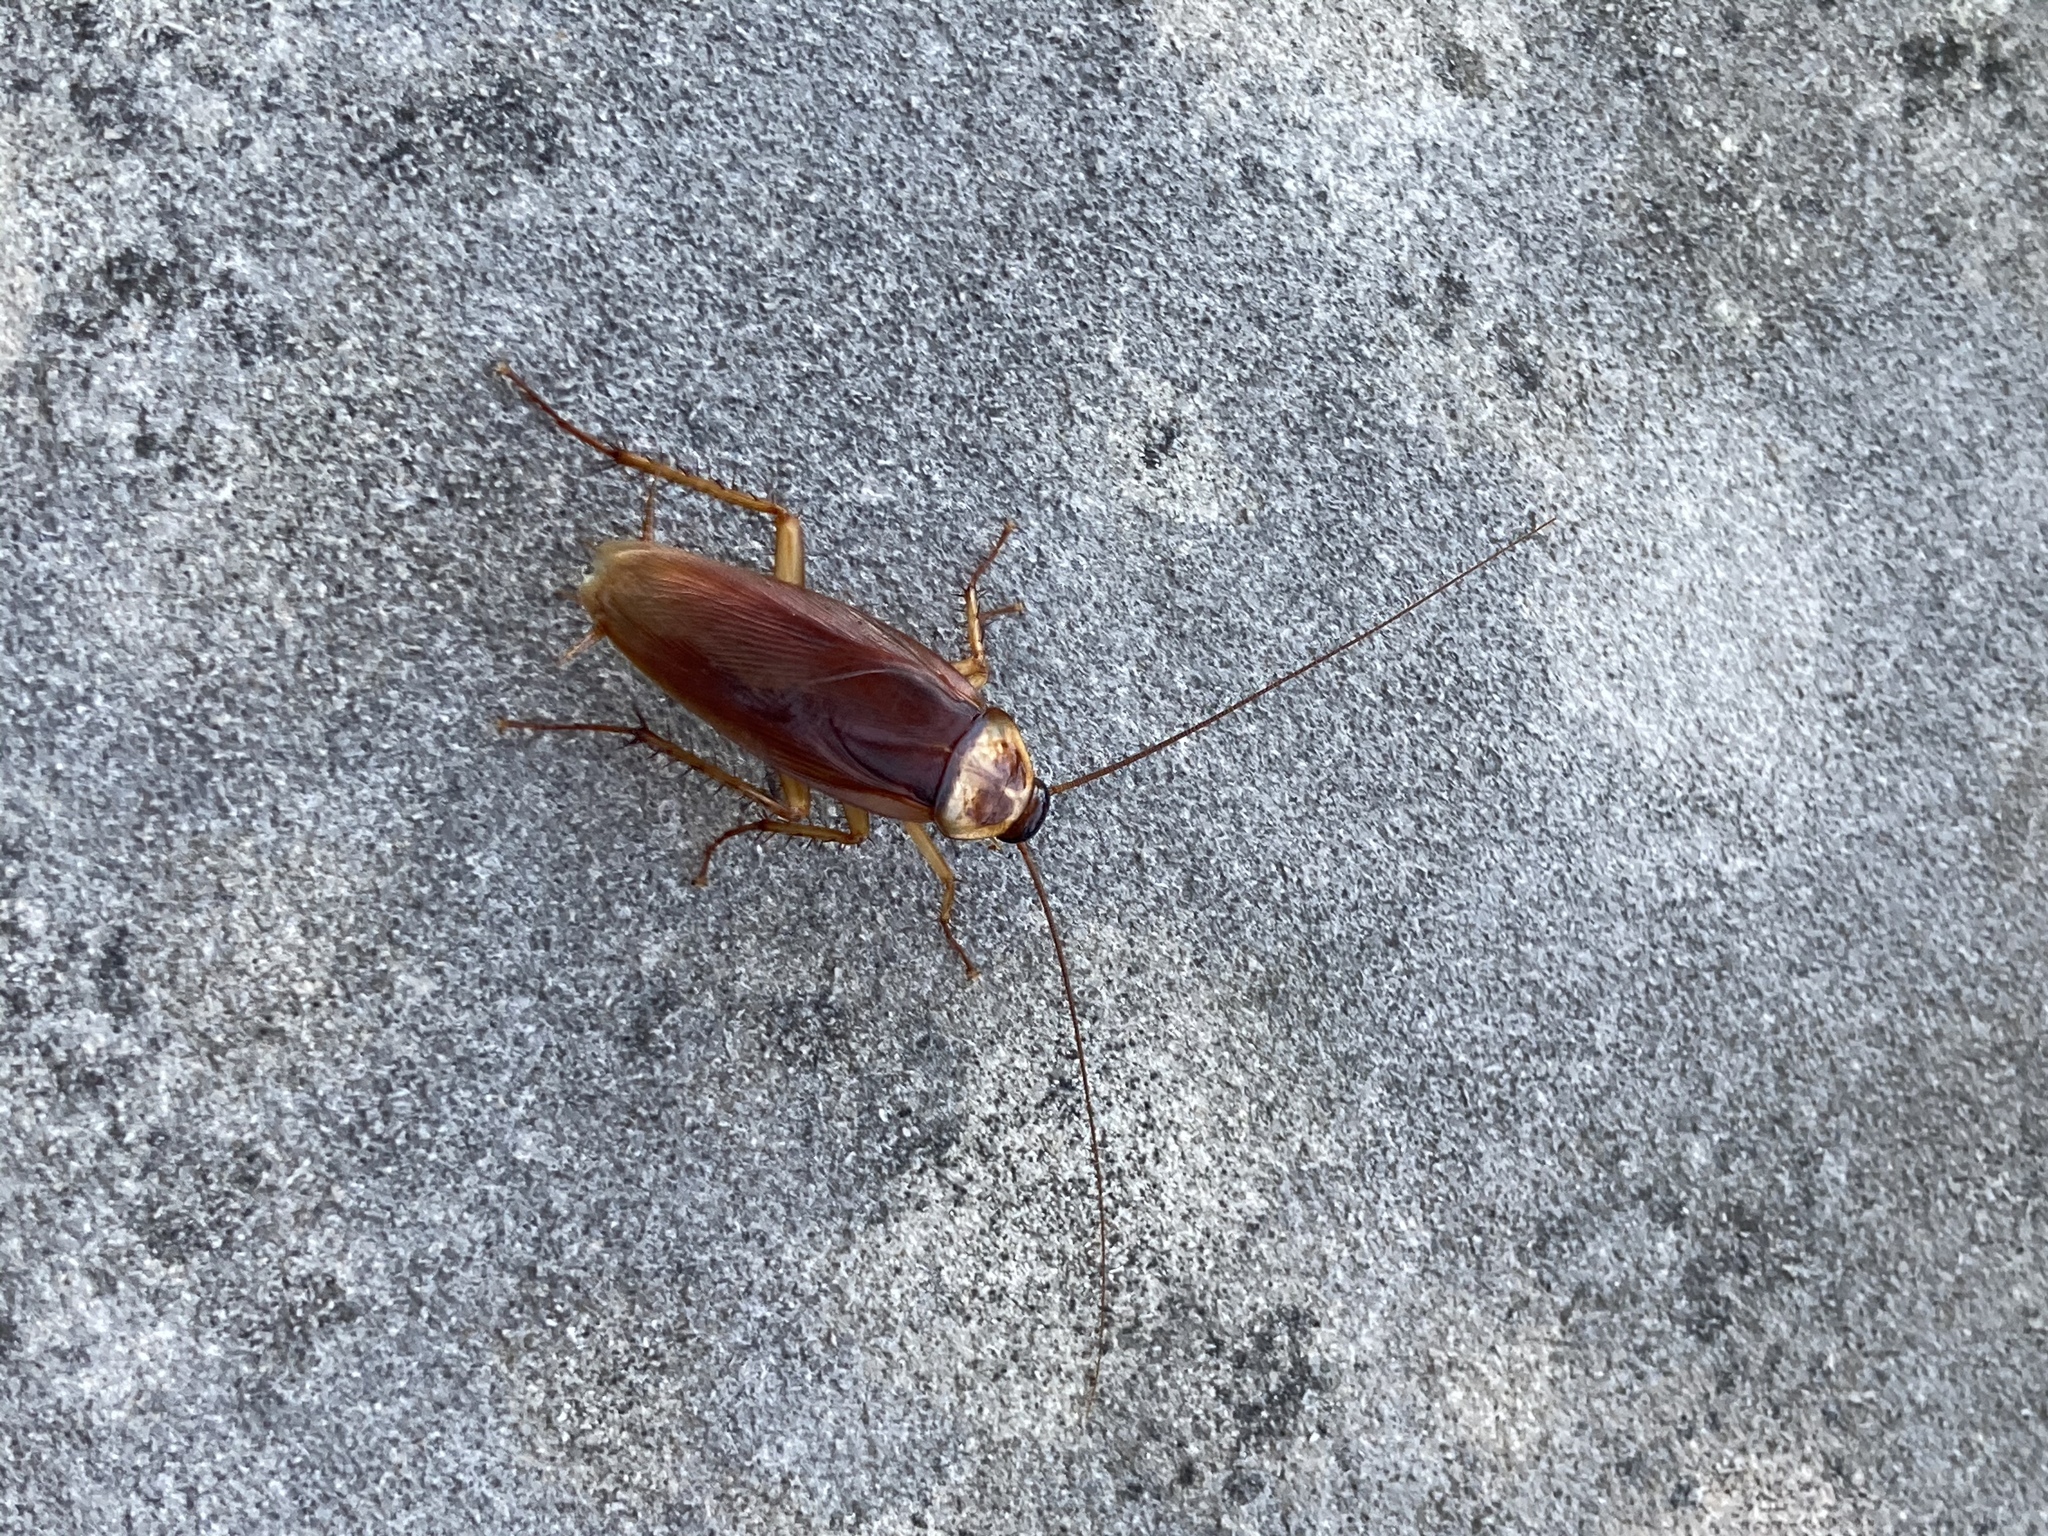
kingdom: Animalia
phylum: Arthropoda
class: Insecta
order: Blattodea
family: Blattidae
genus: Periplaneta
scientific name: Periplaneta americana
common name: American cockroach
